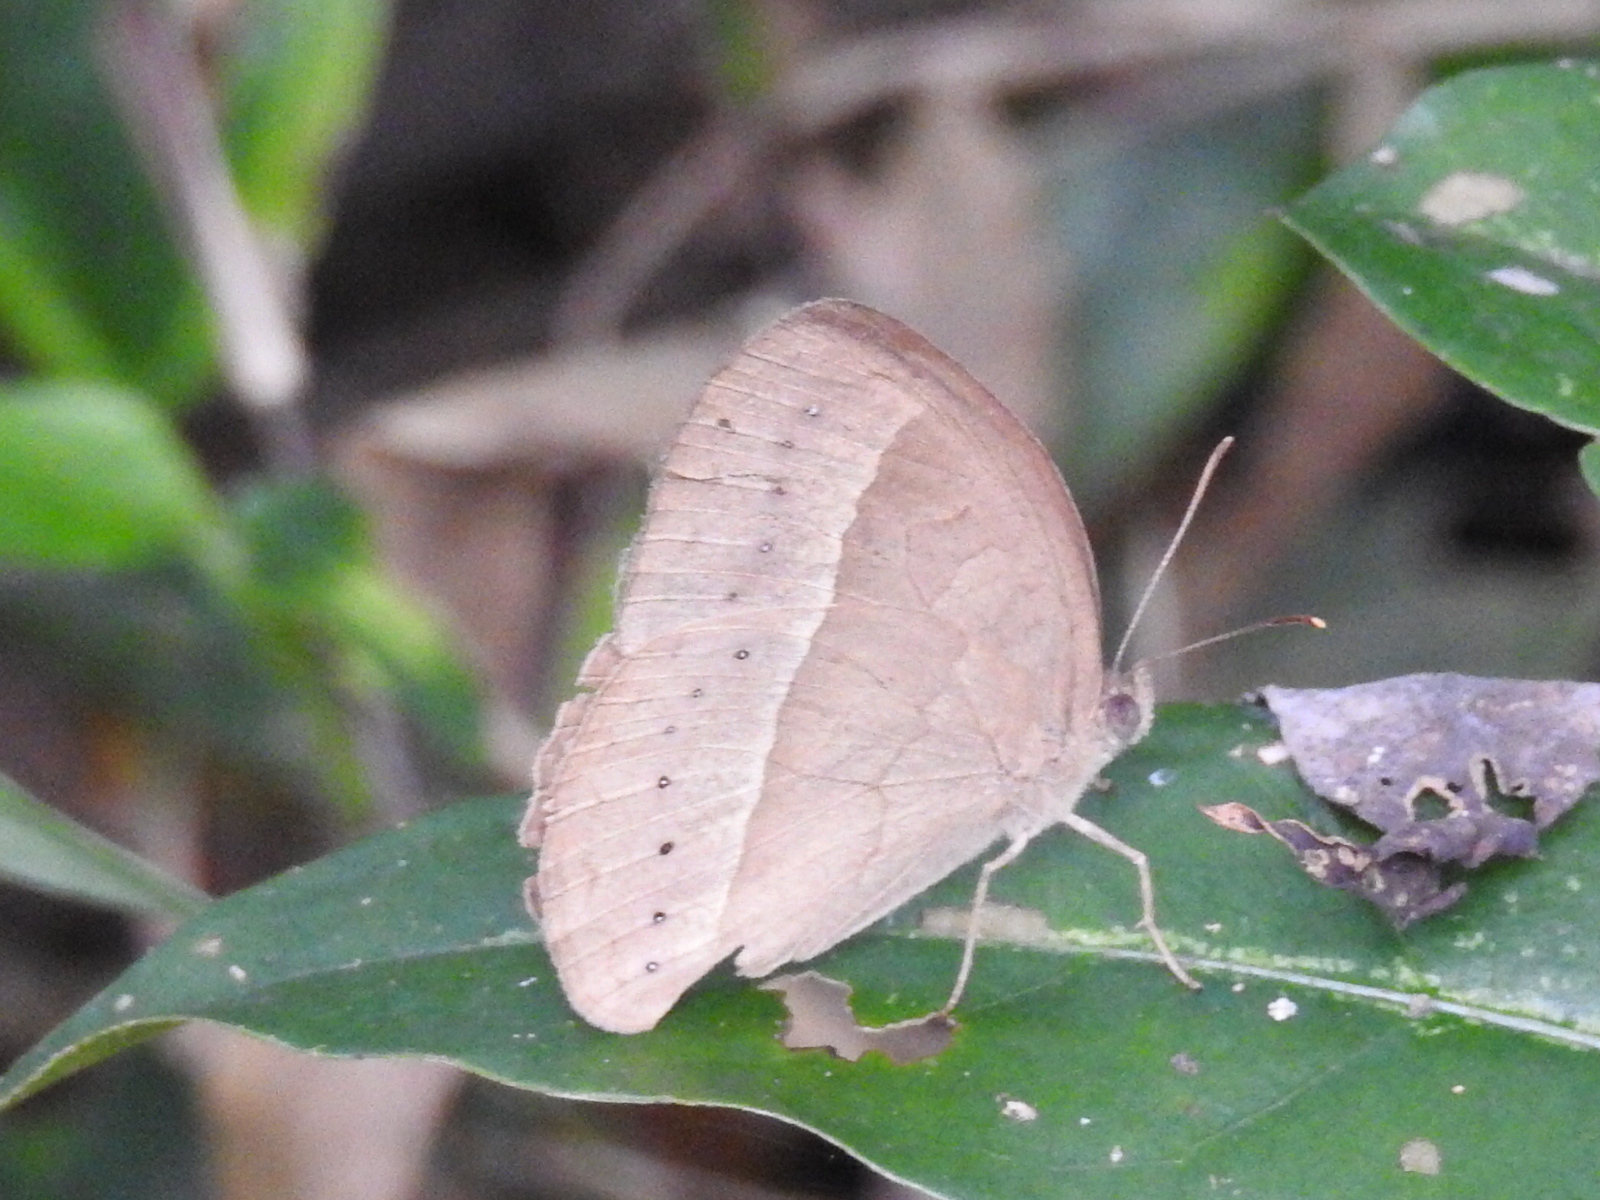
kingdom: Animalia
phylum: Arthropoda
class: Insecta
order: Lepidoptera
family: Nymphalidae
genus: Mycalesis
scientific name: Mycalesis mineus
